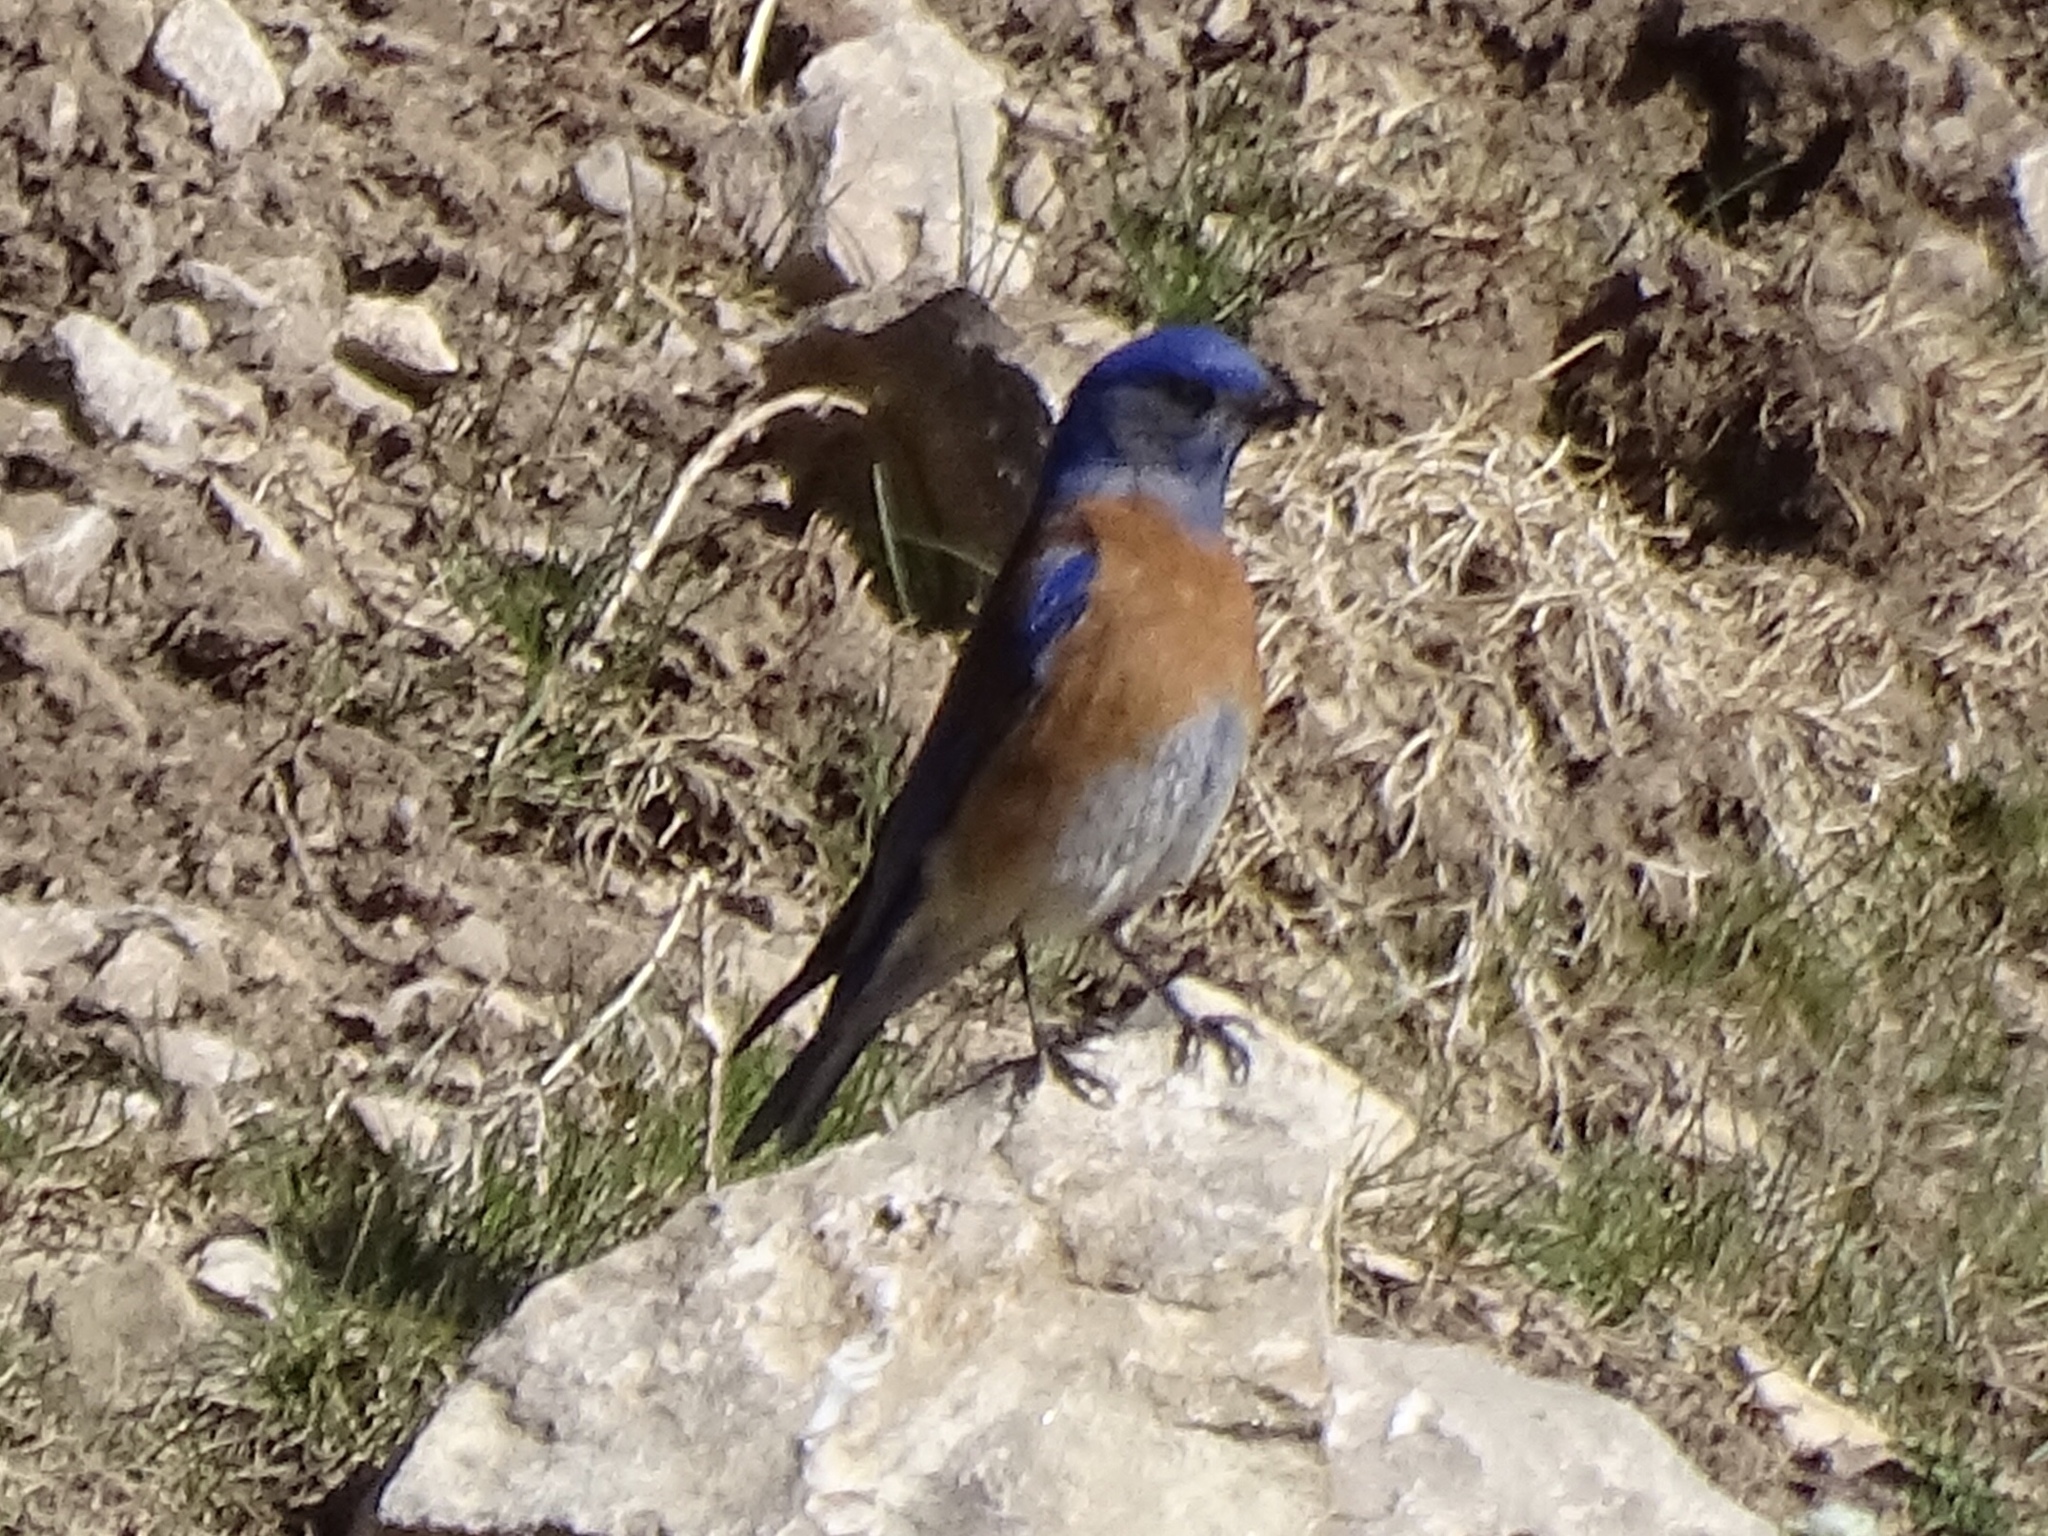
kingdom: Animalia
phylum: Chordata
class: Aves
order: Passeriformes
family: Turdidae
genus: Sialia
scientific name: Sialia mexicana
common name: Western bluebird
